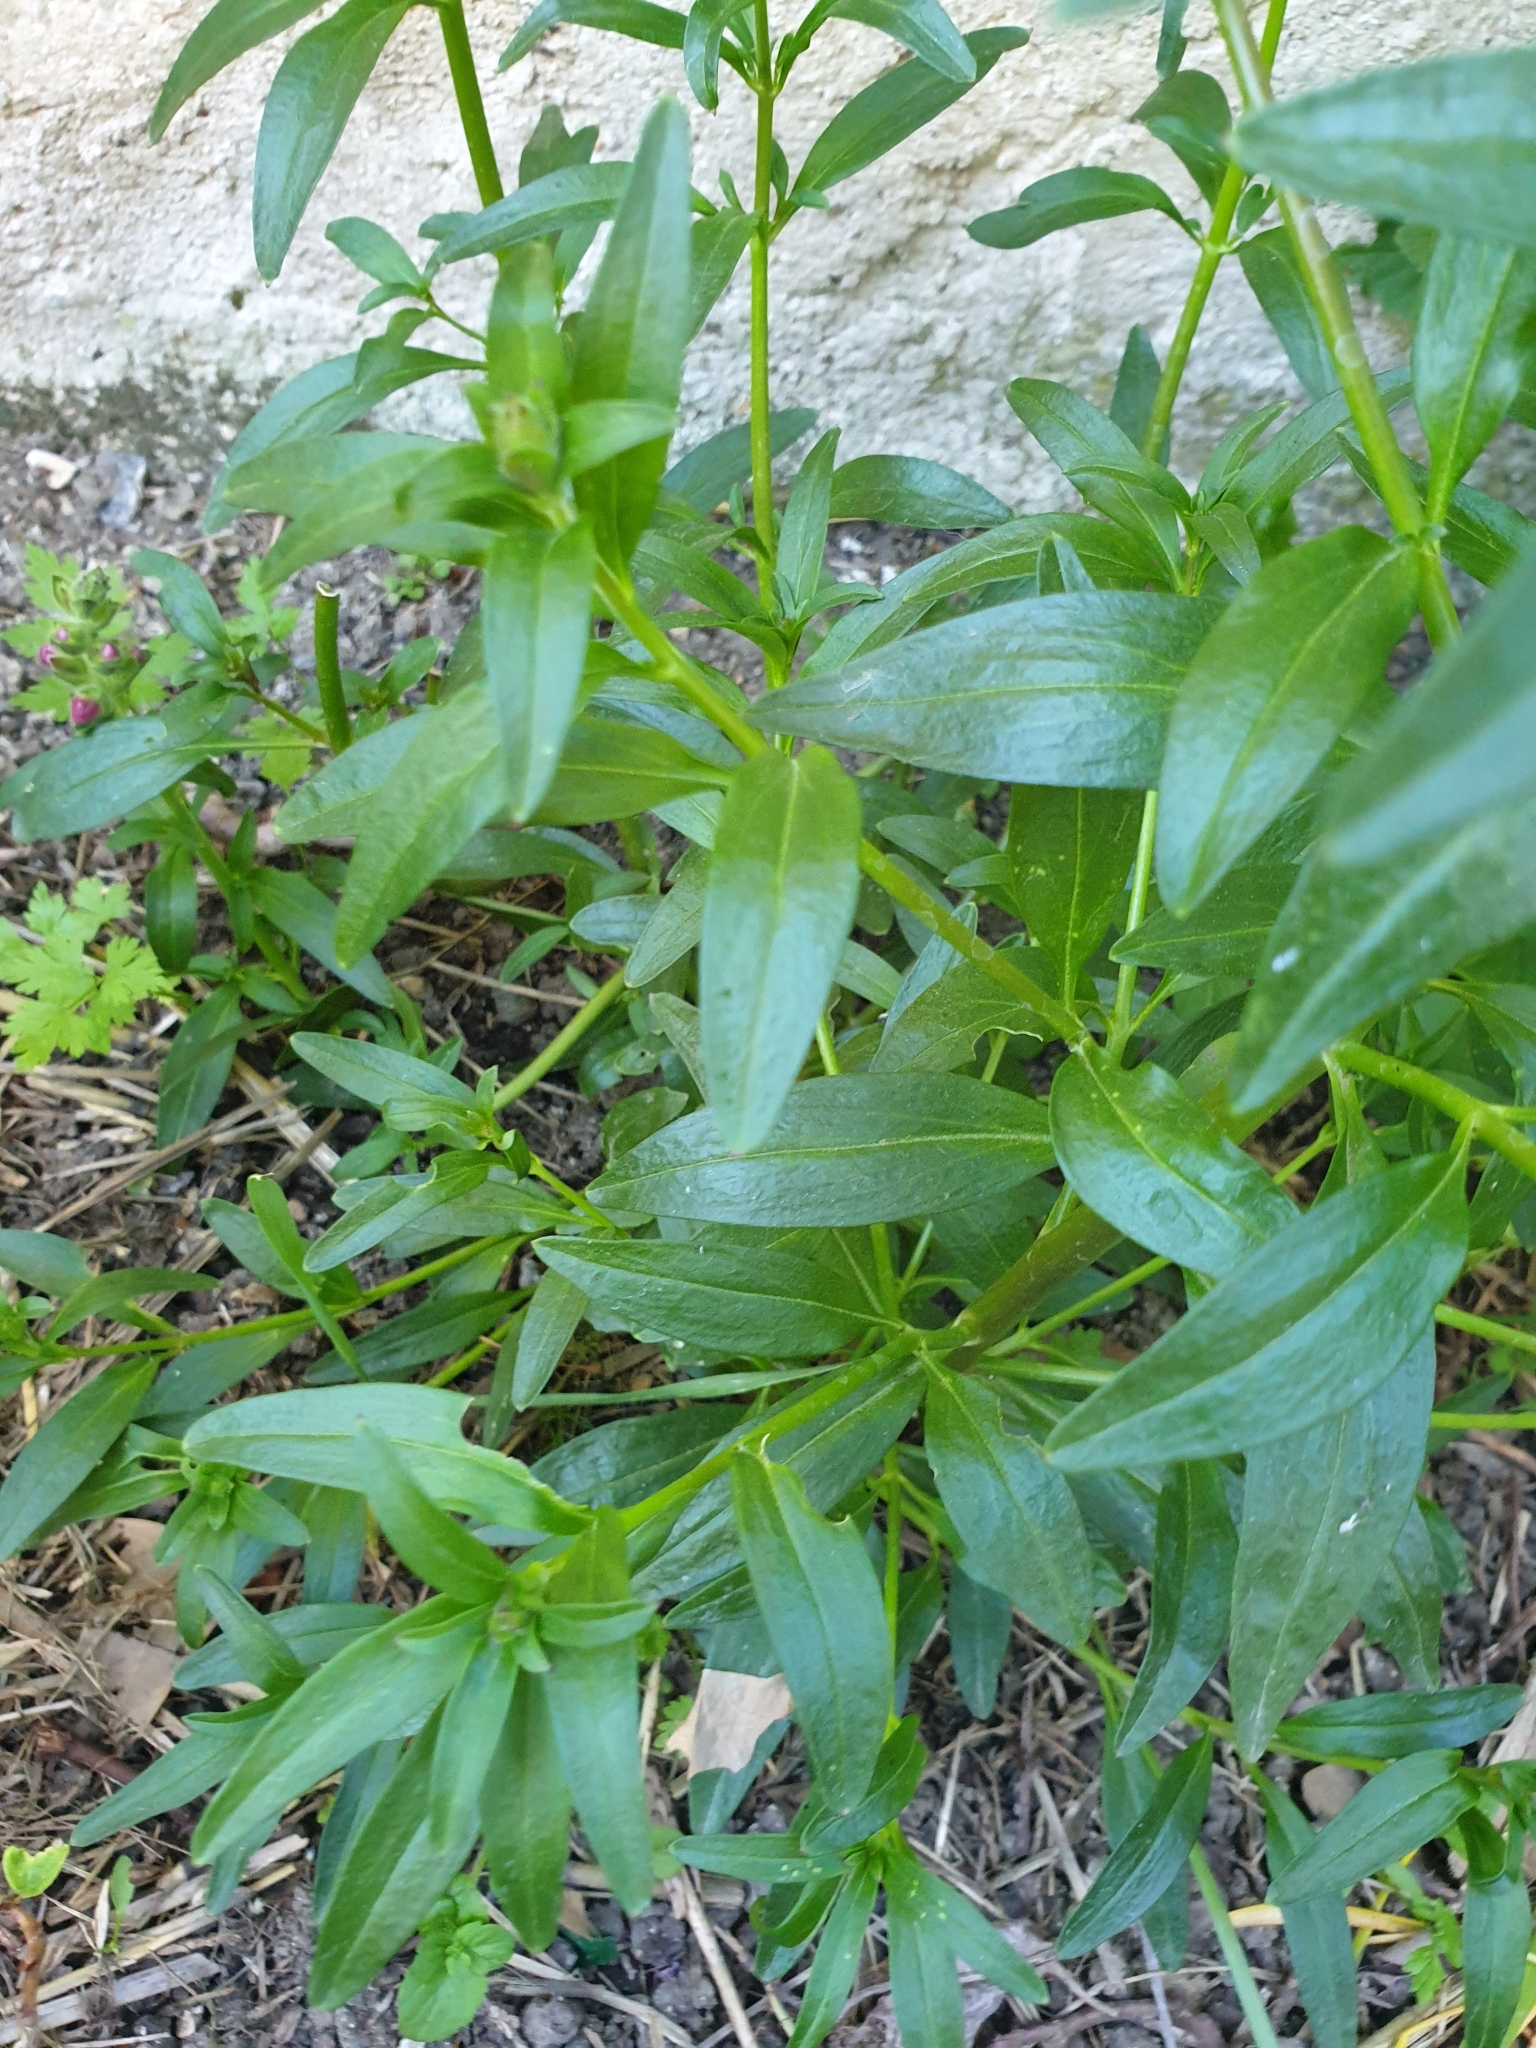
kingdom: Plantae
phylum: Tracheophyta
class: Magnoliopsida
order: Lamiales
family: Plantaginaceae
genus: Antirrhinum
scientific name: Antirrhinum majus
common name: Snapdragon
